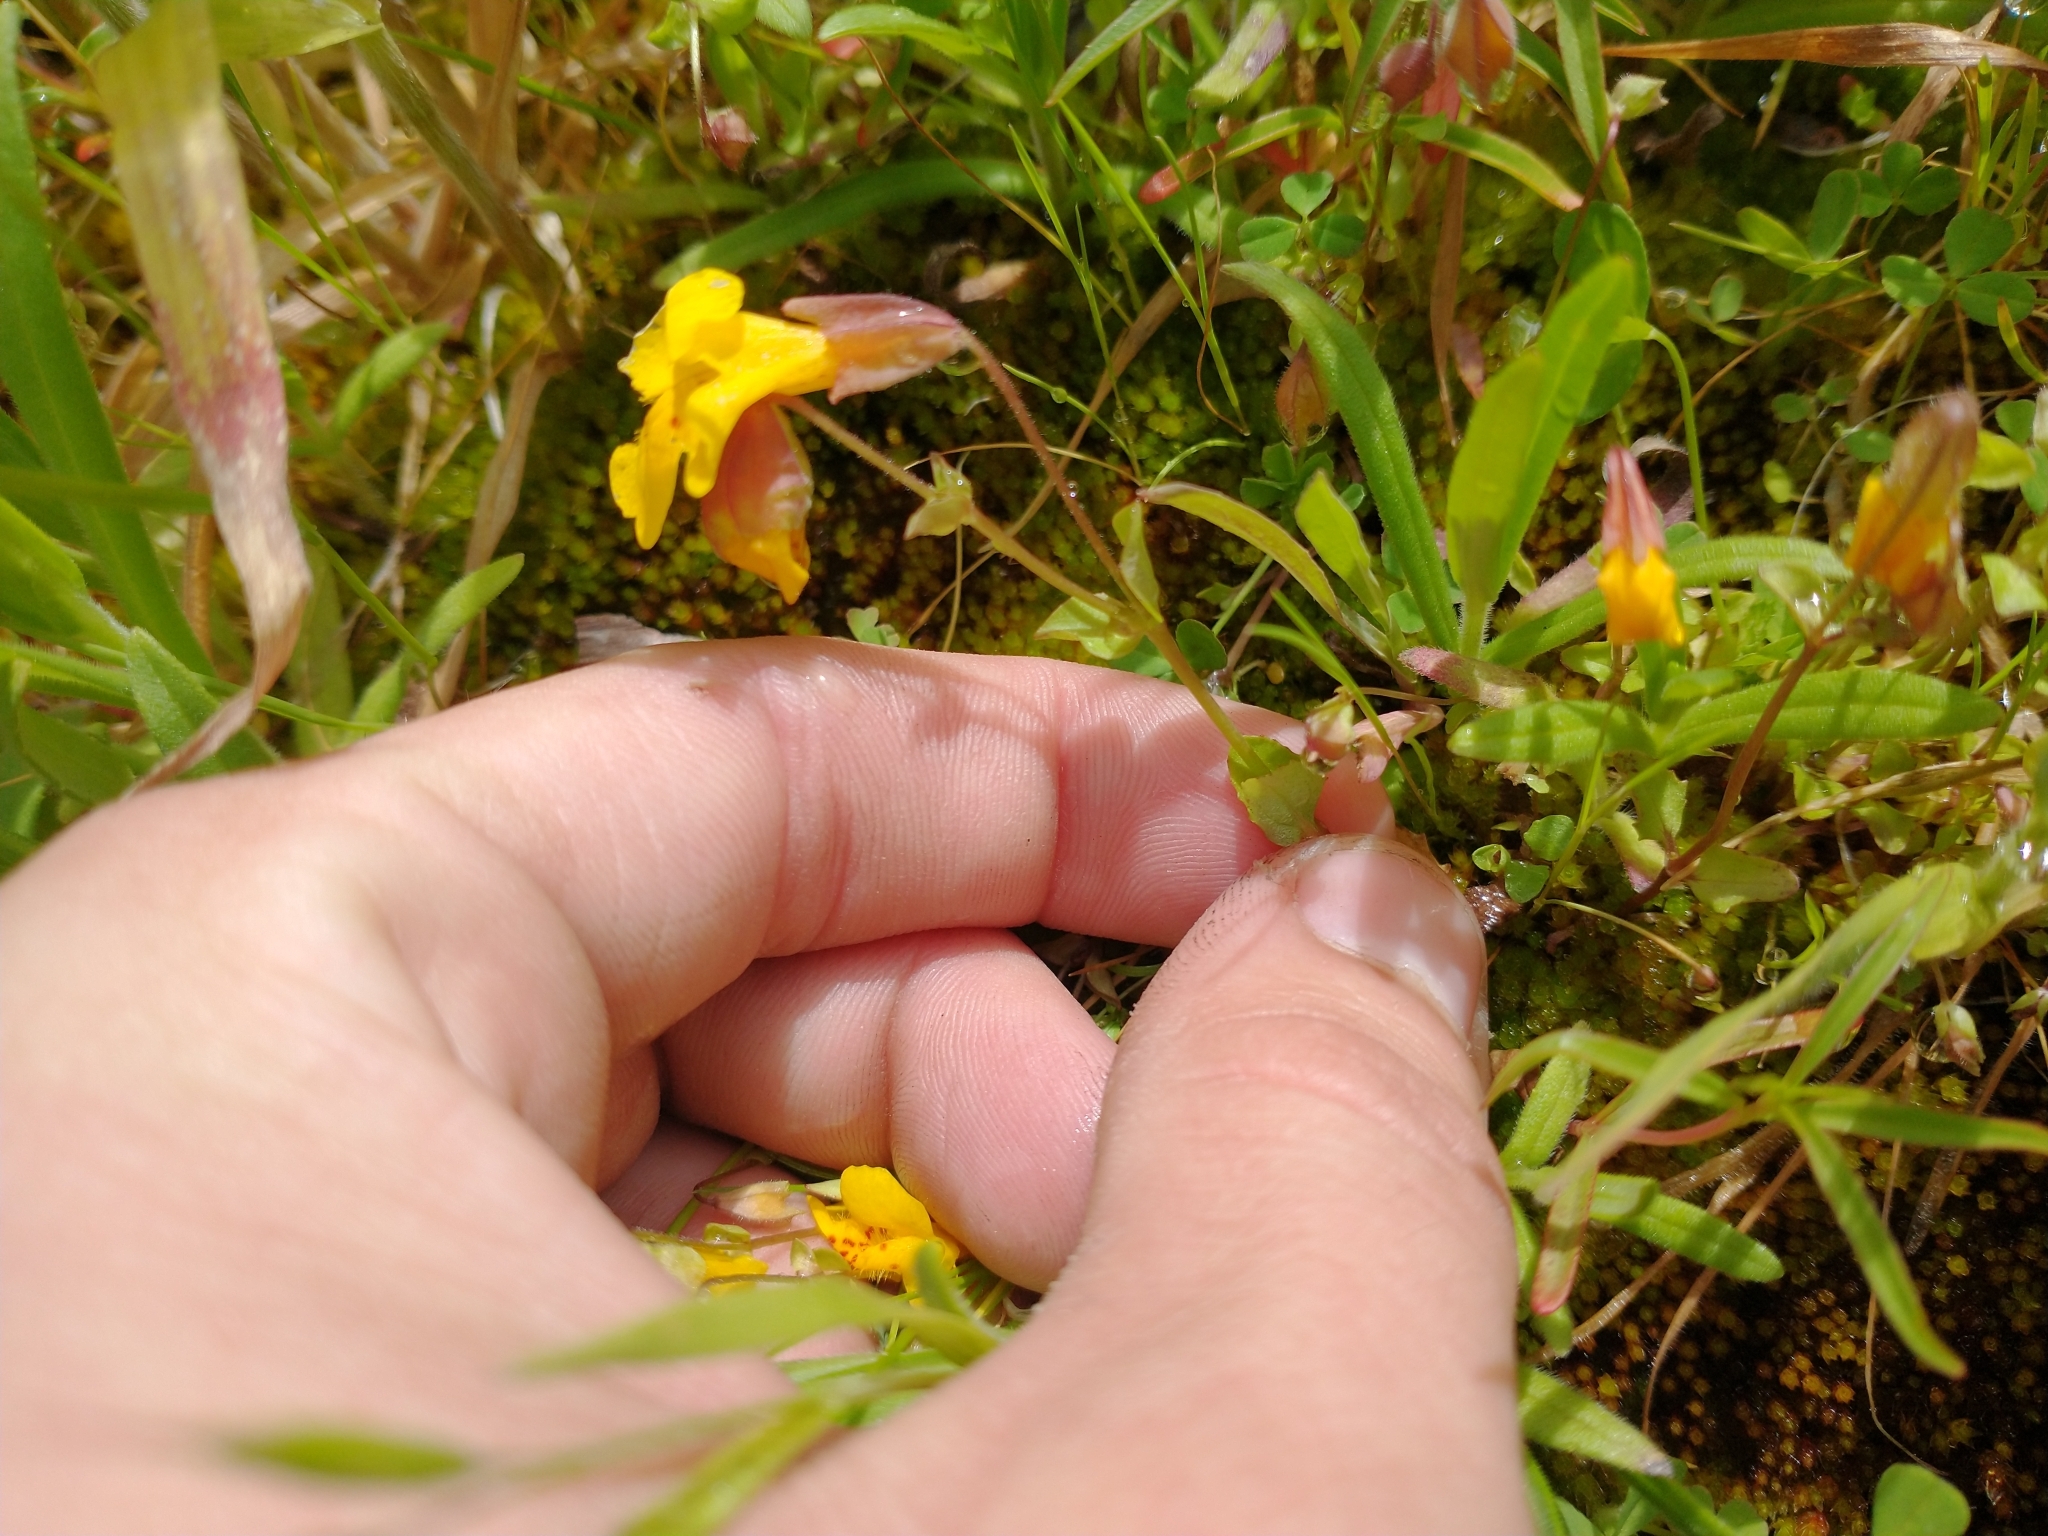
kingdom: Plantae
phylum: Tracheophyta
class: Magnoliopsida
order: Lamiales
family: Phrymaceae
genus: Erythranthe
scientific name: Erythranthe microphylla
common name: Bentham's monkeyflower
